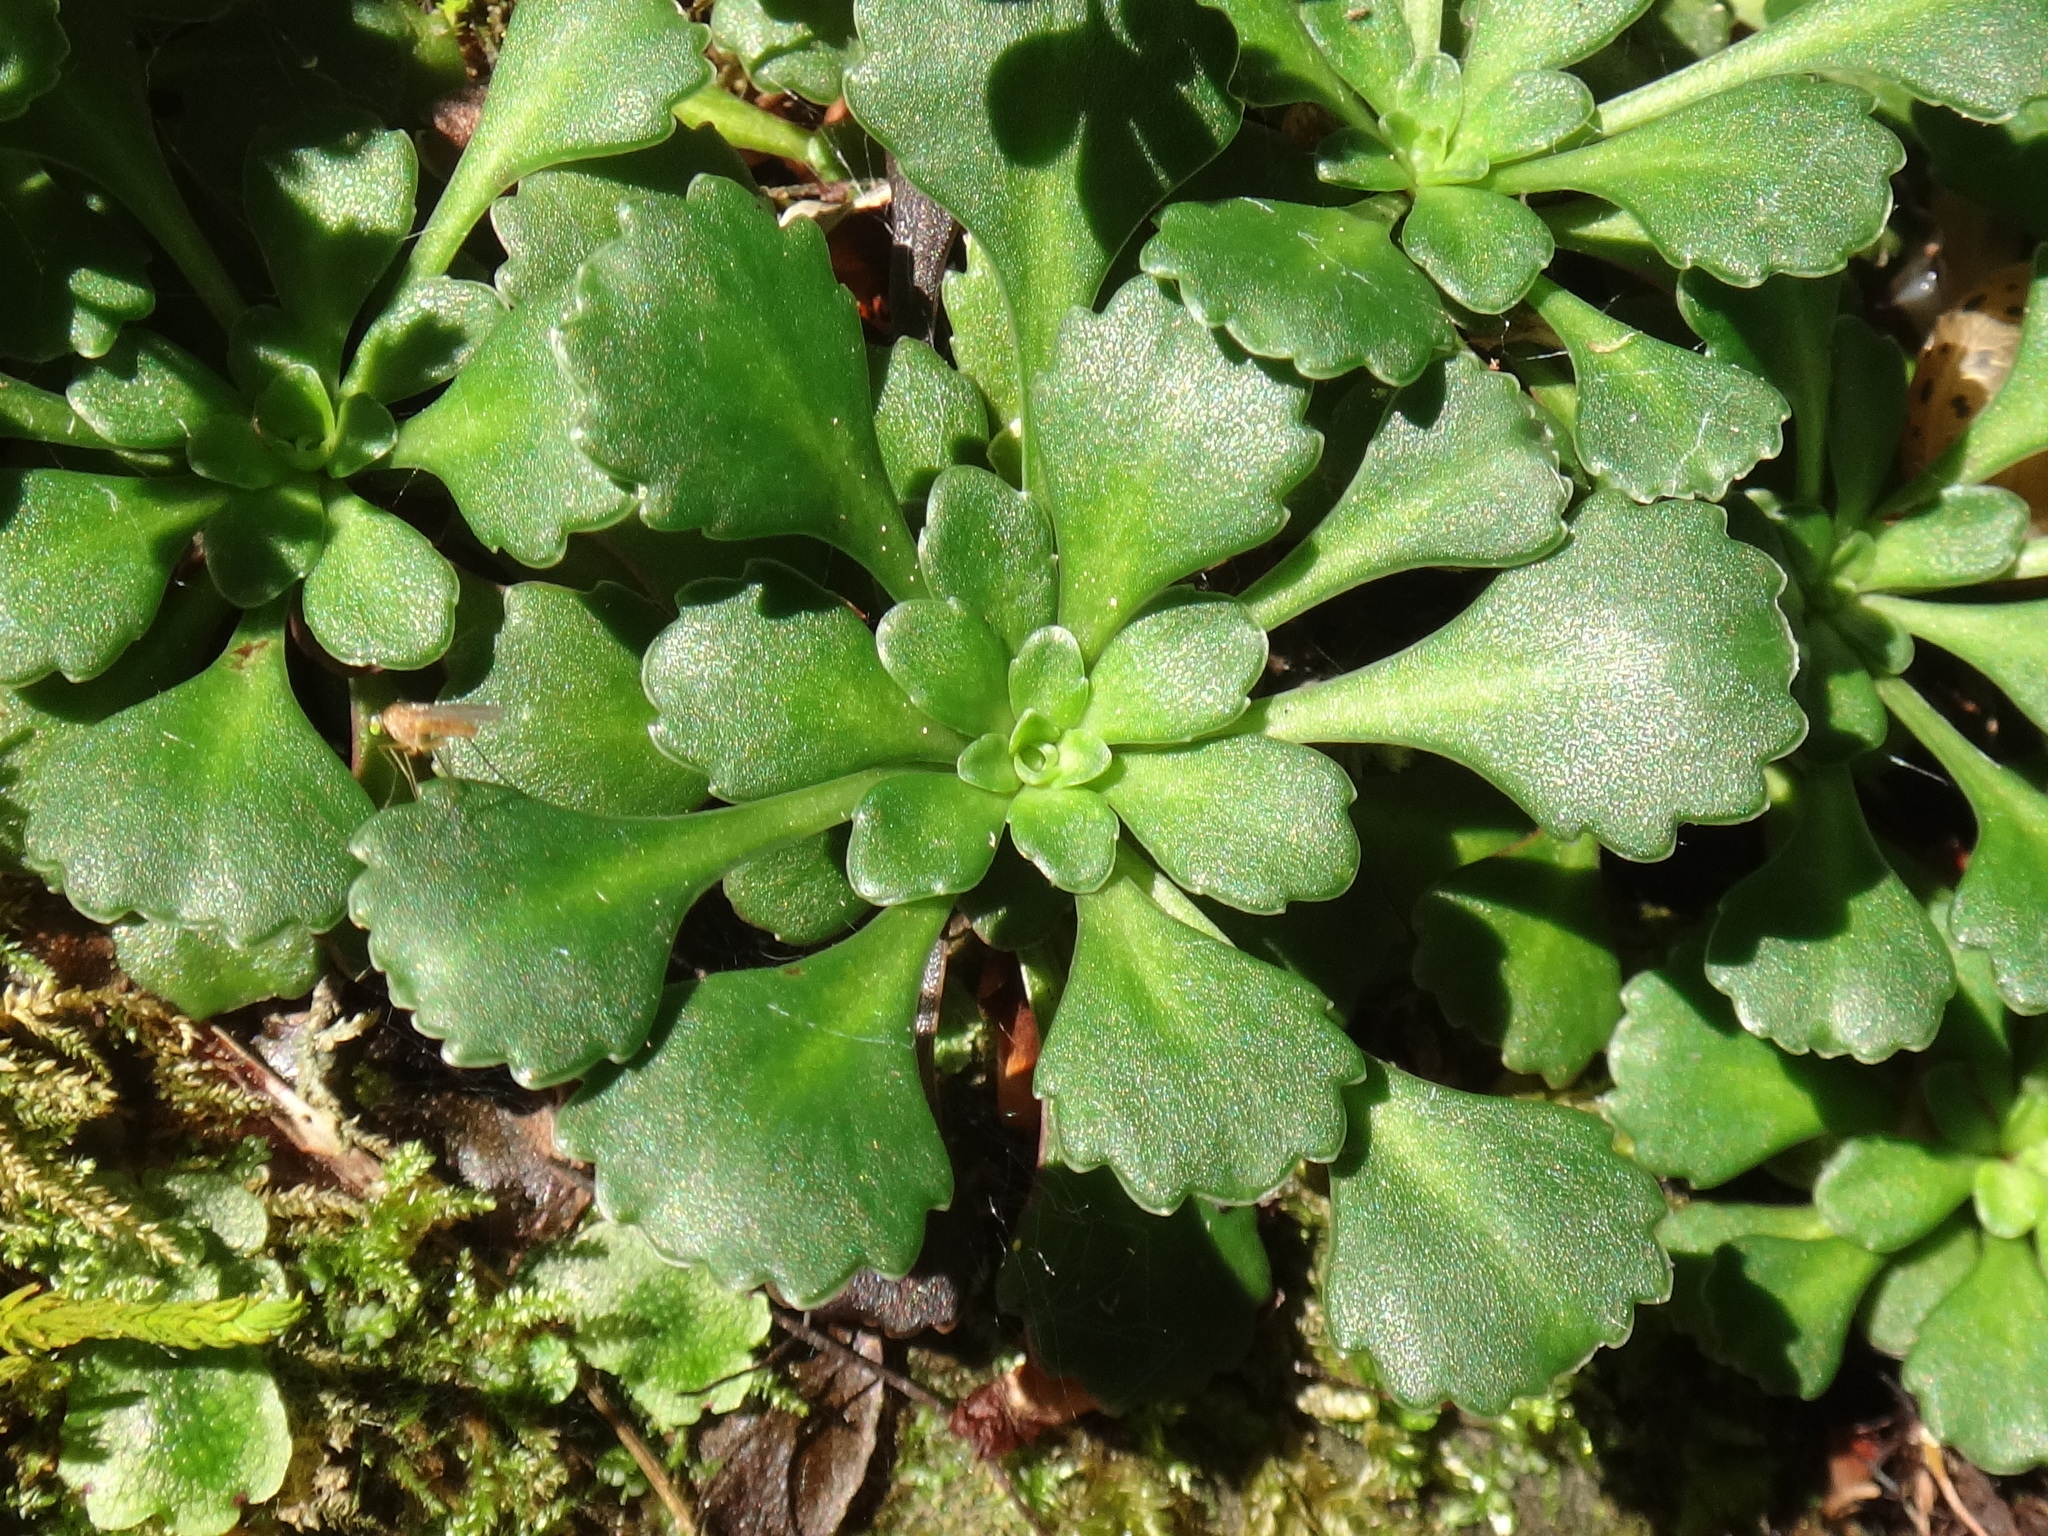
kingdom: Plantae
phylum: Tracheophyta
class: Magnoliopsida
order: Saxifragales
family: Saxifragaceae
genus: Saxifraga
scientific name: Saxifraga cuneifolia
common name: Lesser londonpride
